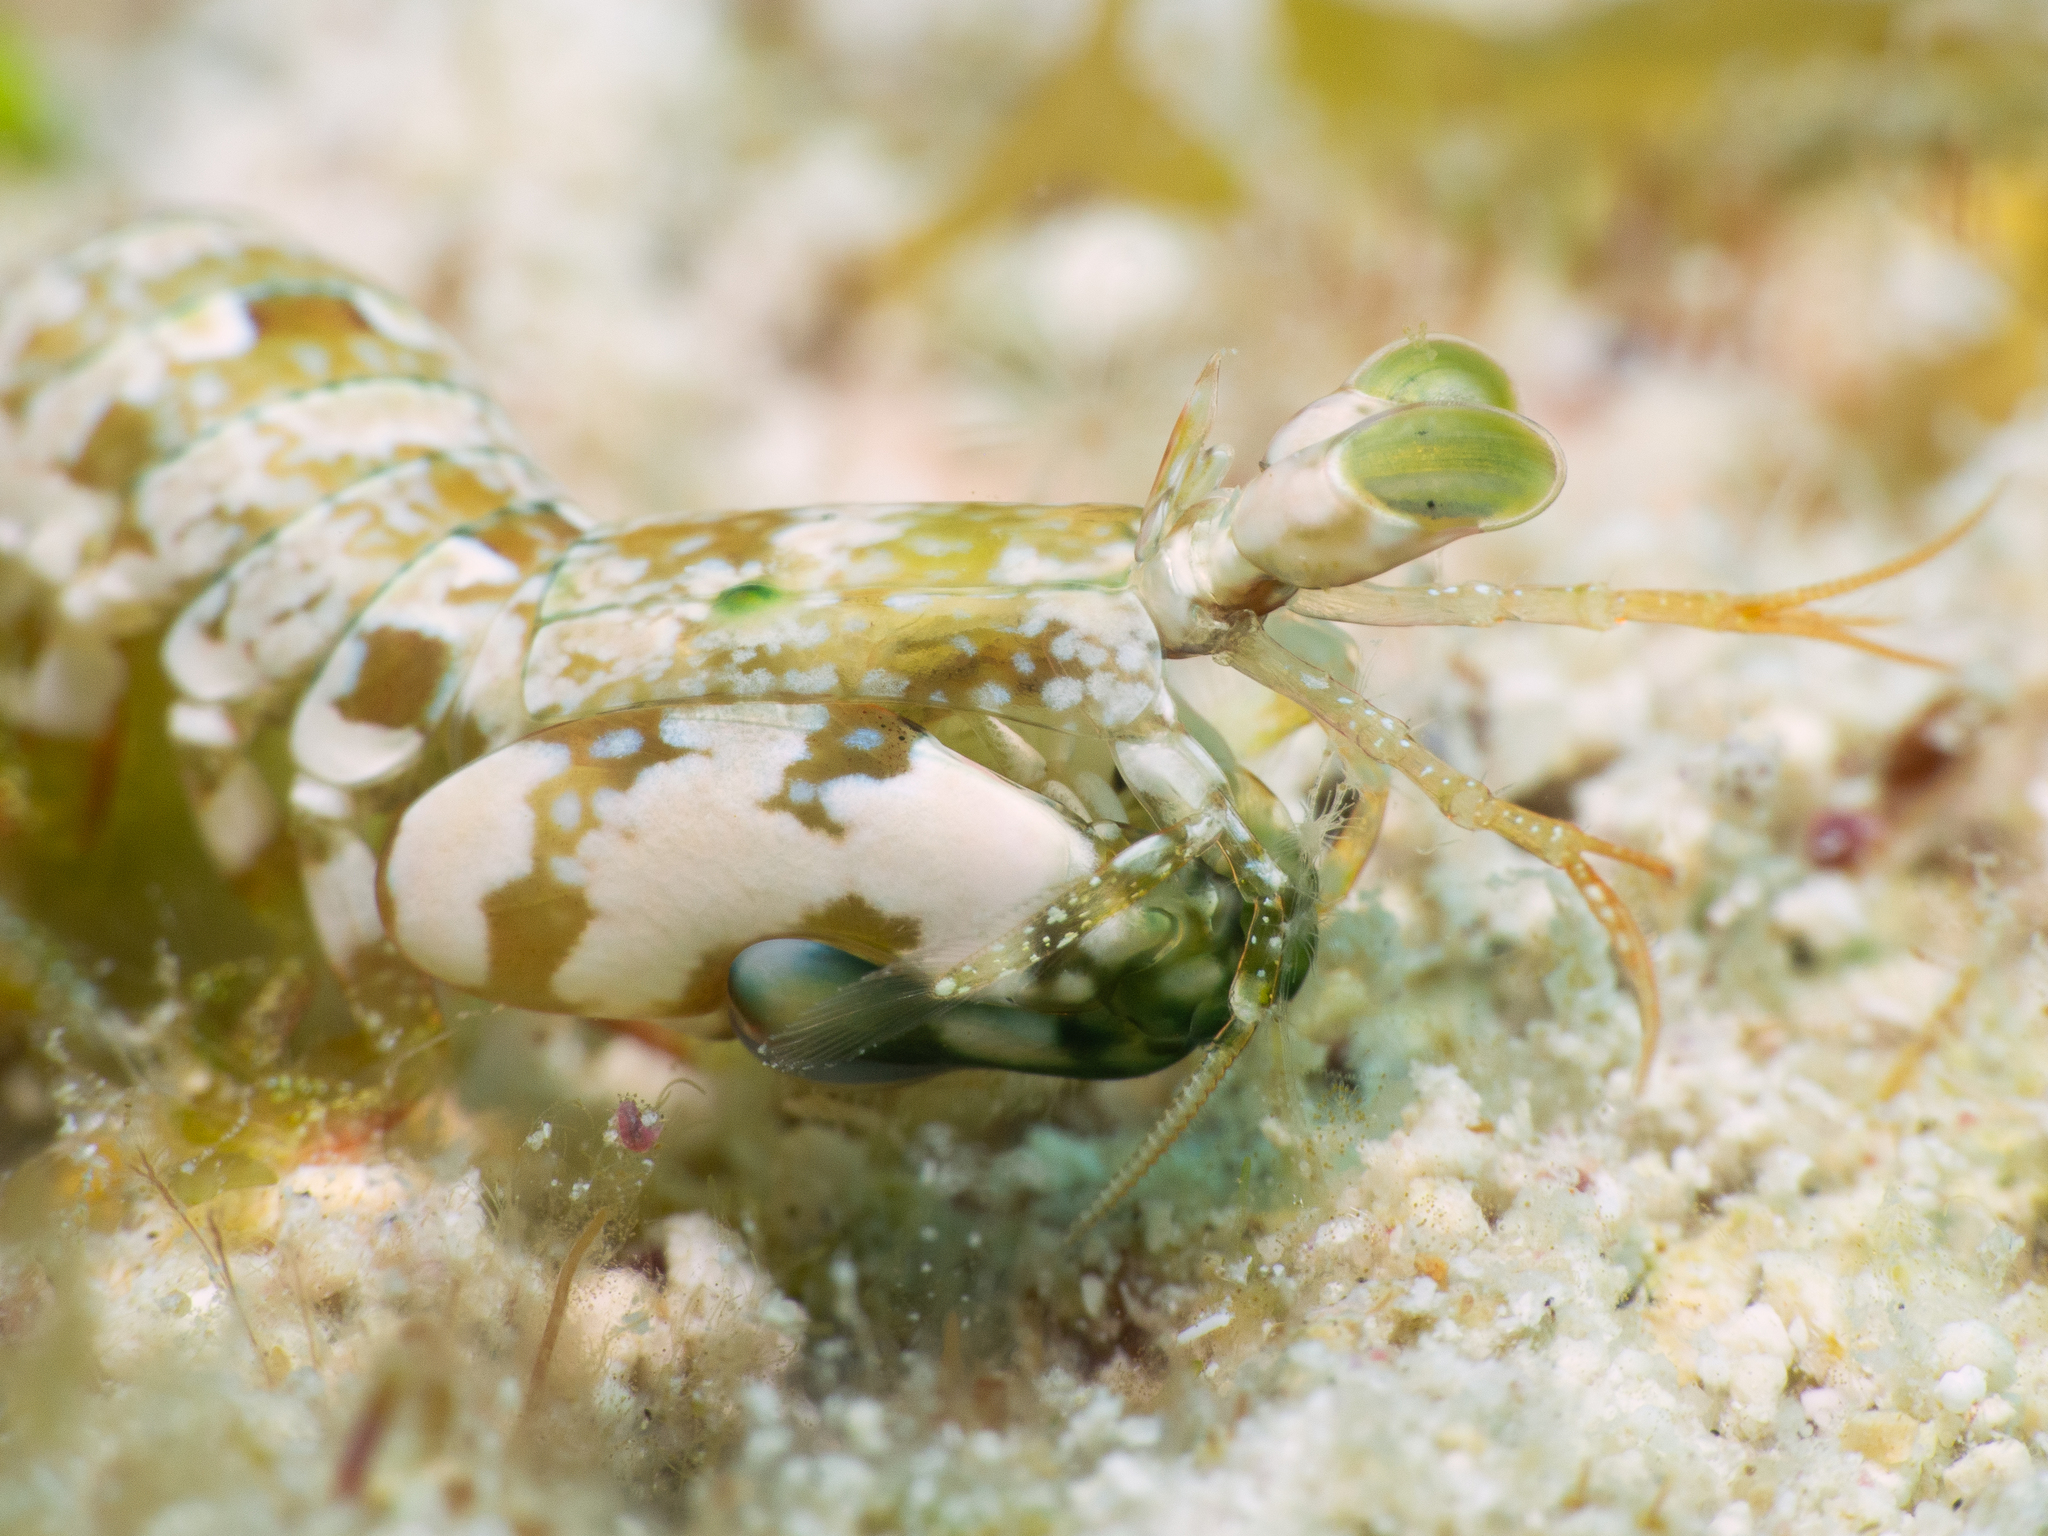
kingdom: Animalia
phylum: Arthropoda
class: Malacostraca
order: Stomatopoda
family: Gonodactylidae
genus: Neogonodactylus
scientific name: Neogonodactylus oerstedii
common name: Swollen-claw squilla
